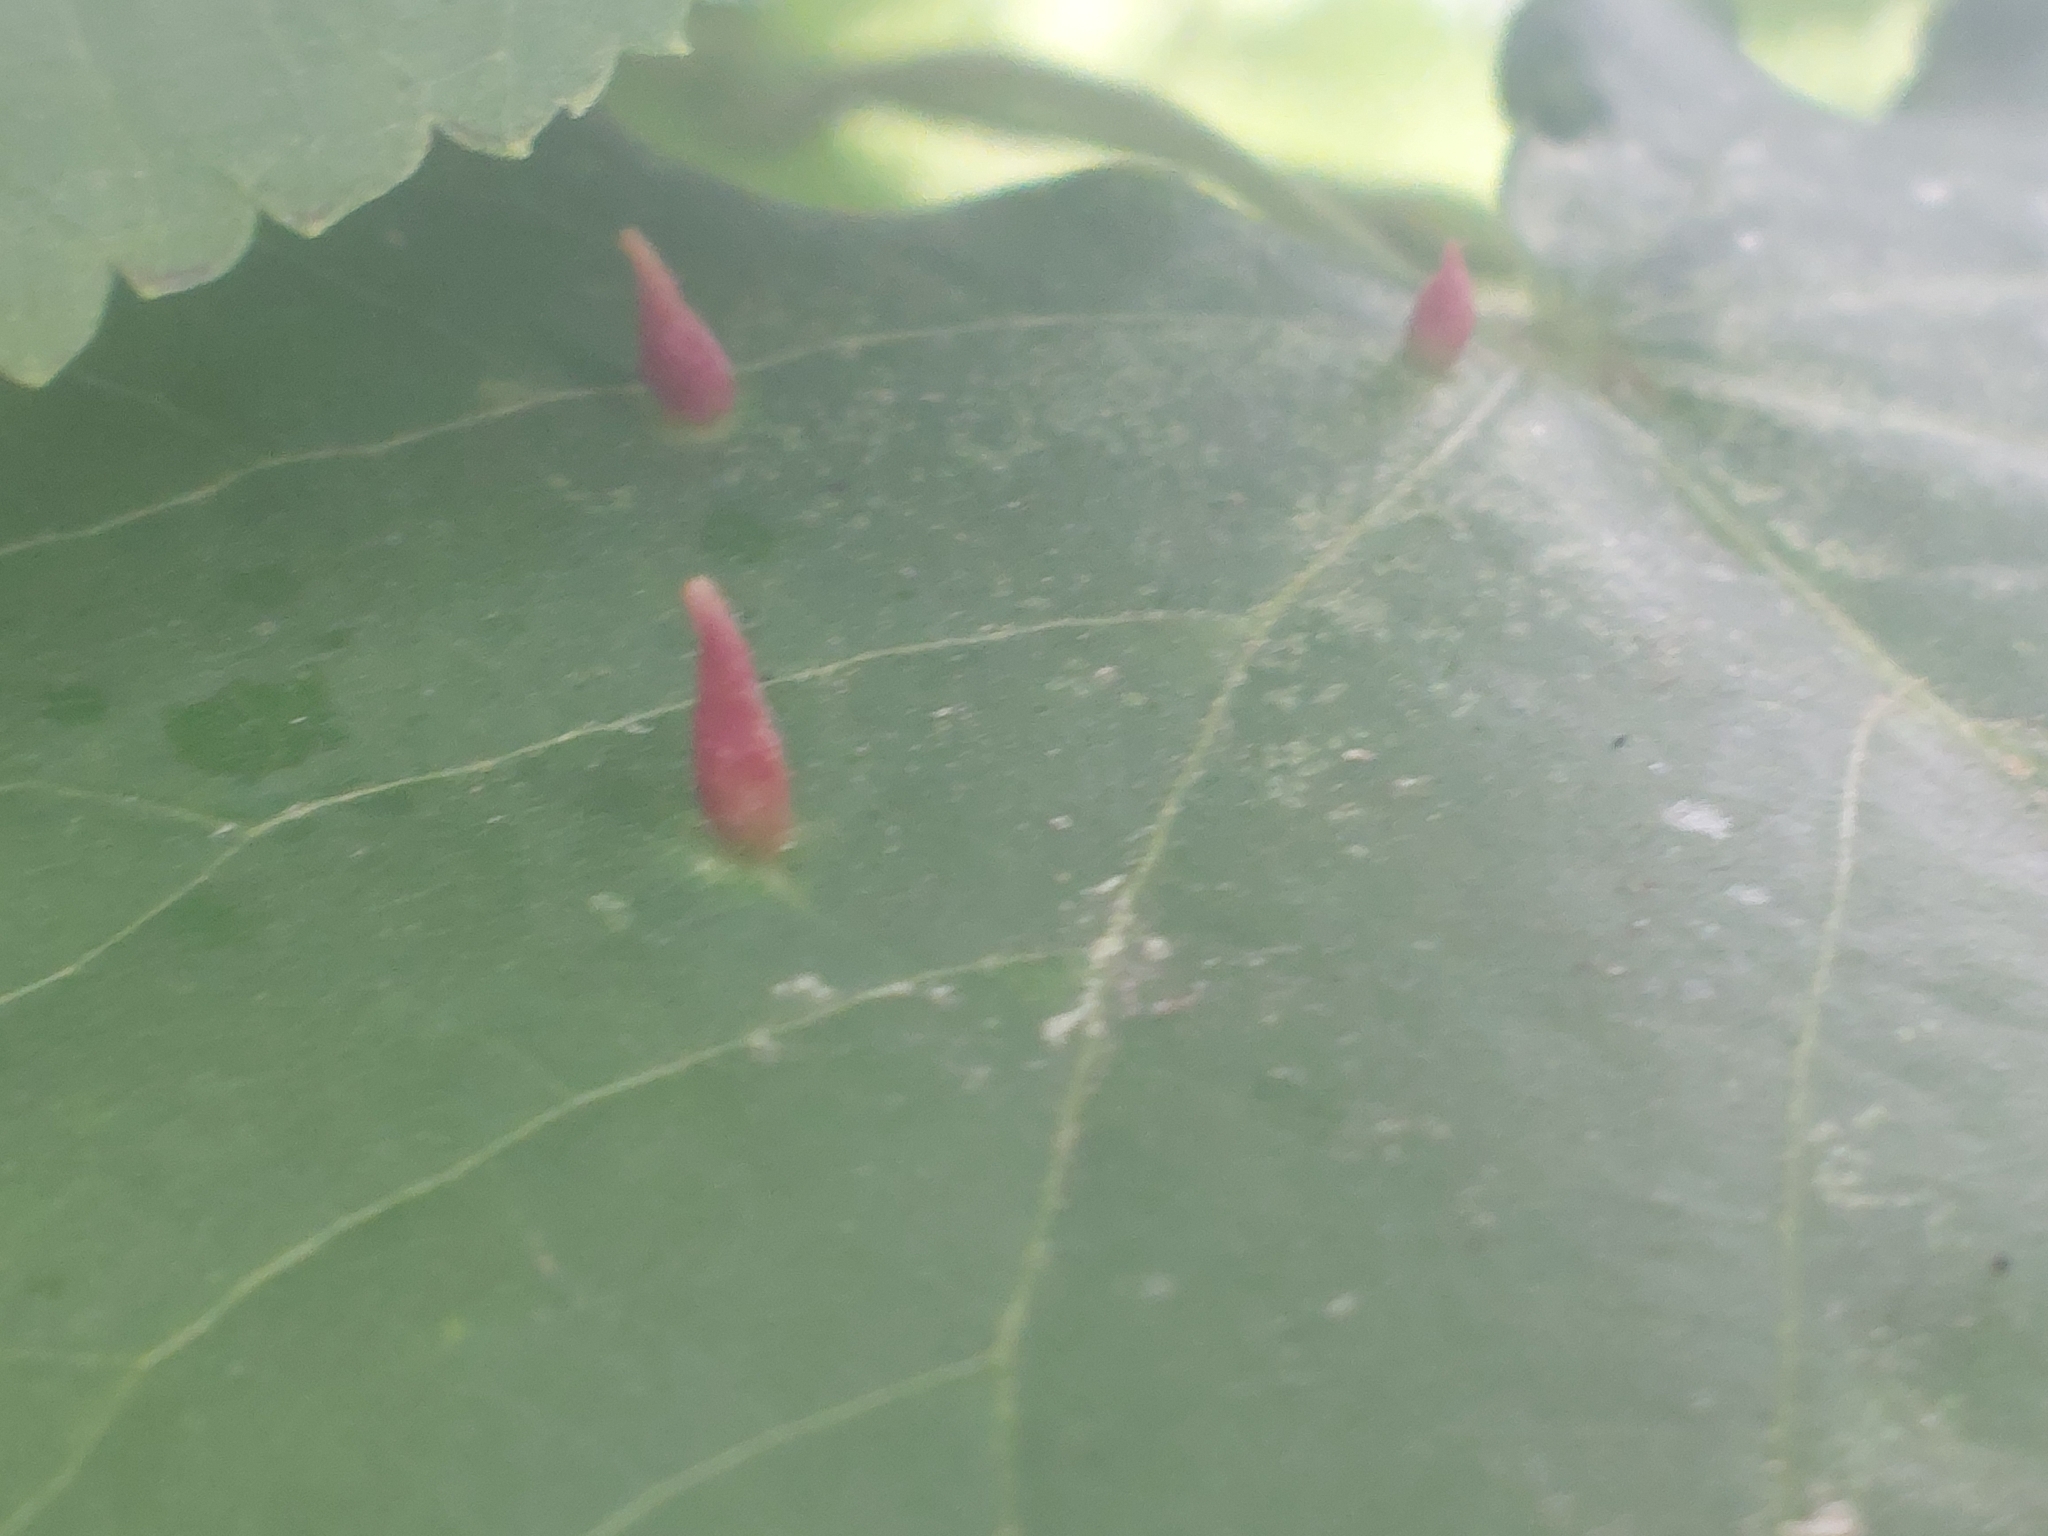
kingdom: Animalia
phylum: Arthropoda
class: Arachnida
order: Trombidiformes
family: Eriophyidae
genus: Eriophyes
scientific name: Eriophyes tiliae
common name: Red nail gall mite
